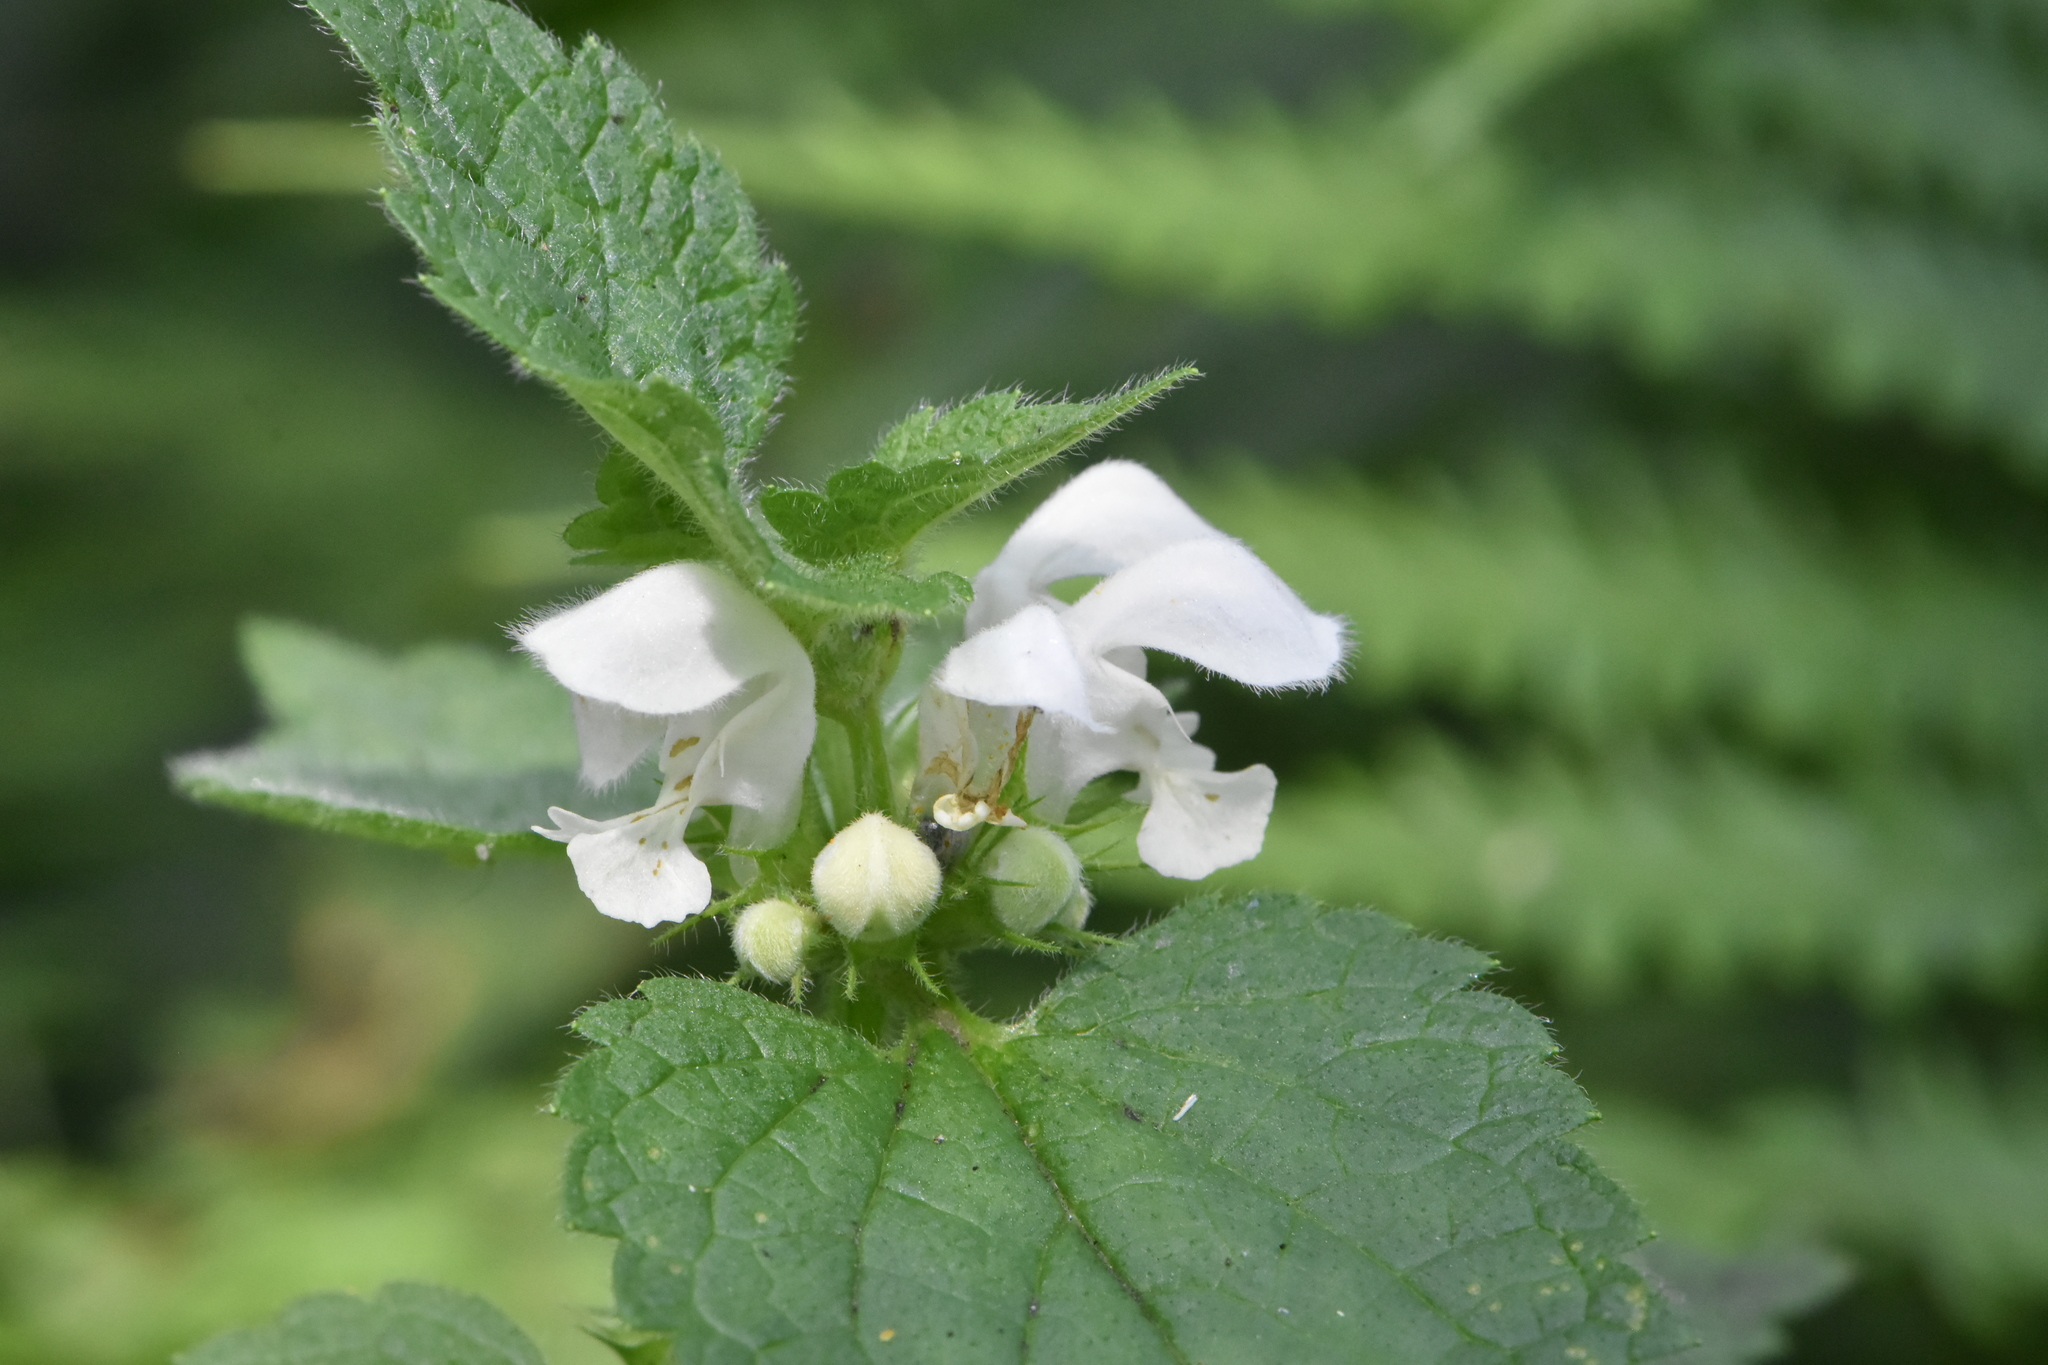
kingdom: Plantae
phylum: Tracheophyta
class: Magnoliopsida
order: Lamiales
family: Lamiaceae
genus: Lamium
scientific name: Lamium album
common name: White dead-nettle
